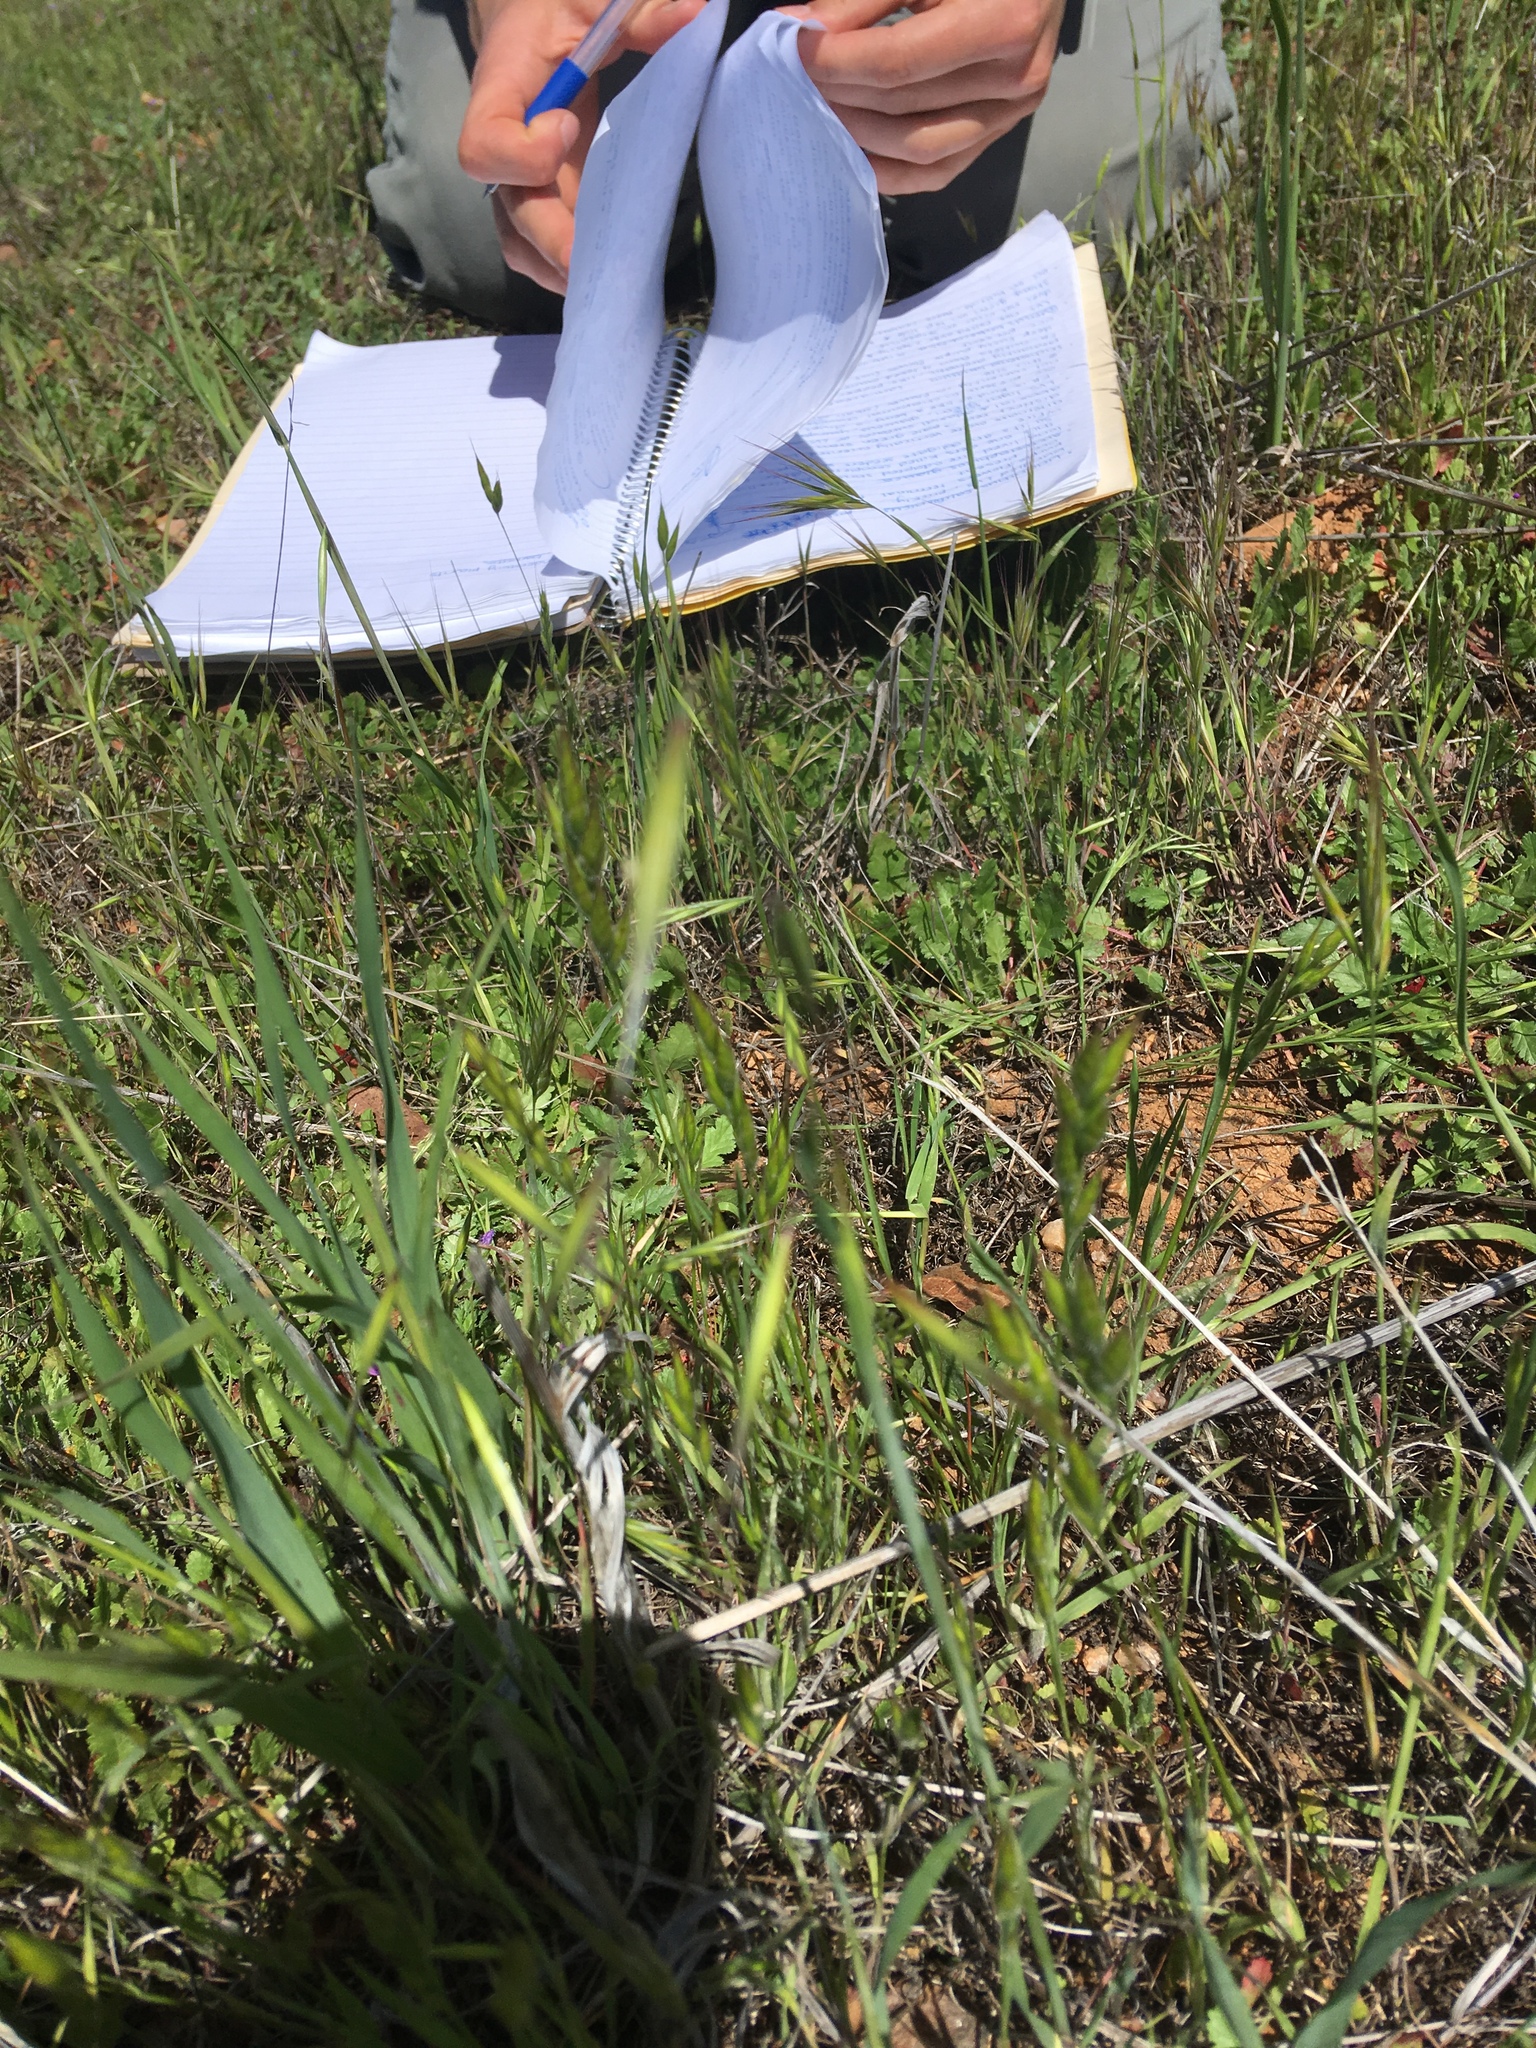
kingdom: Plantae
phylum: Tracheophyta
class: Liliopsida
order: Poales
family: Poaceae
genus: Bromus
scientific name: Bromus hordeaceus
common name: Soft brome
